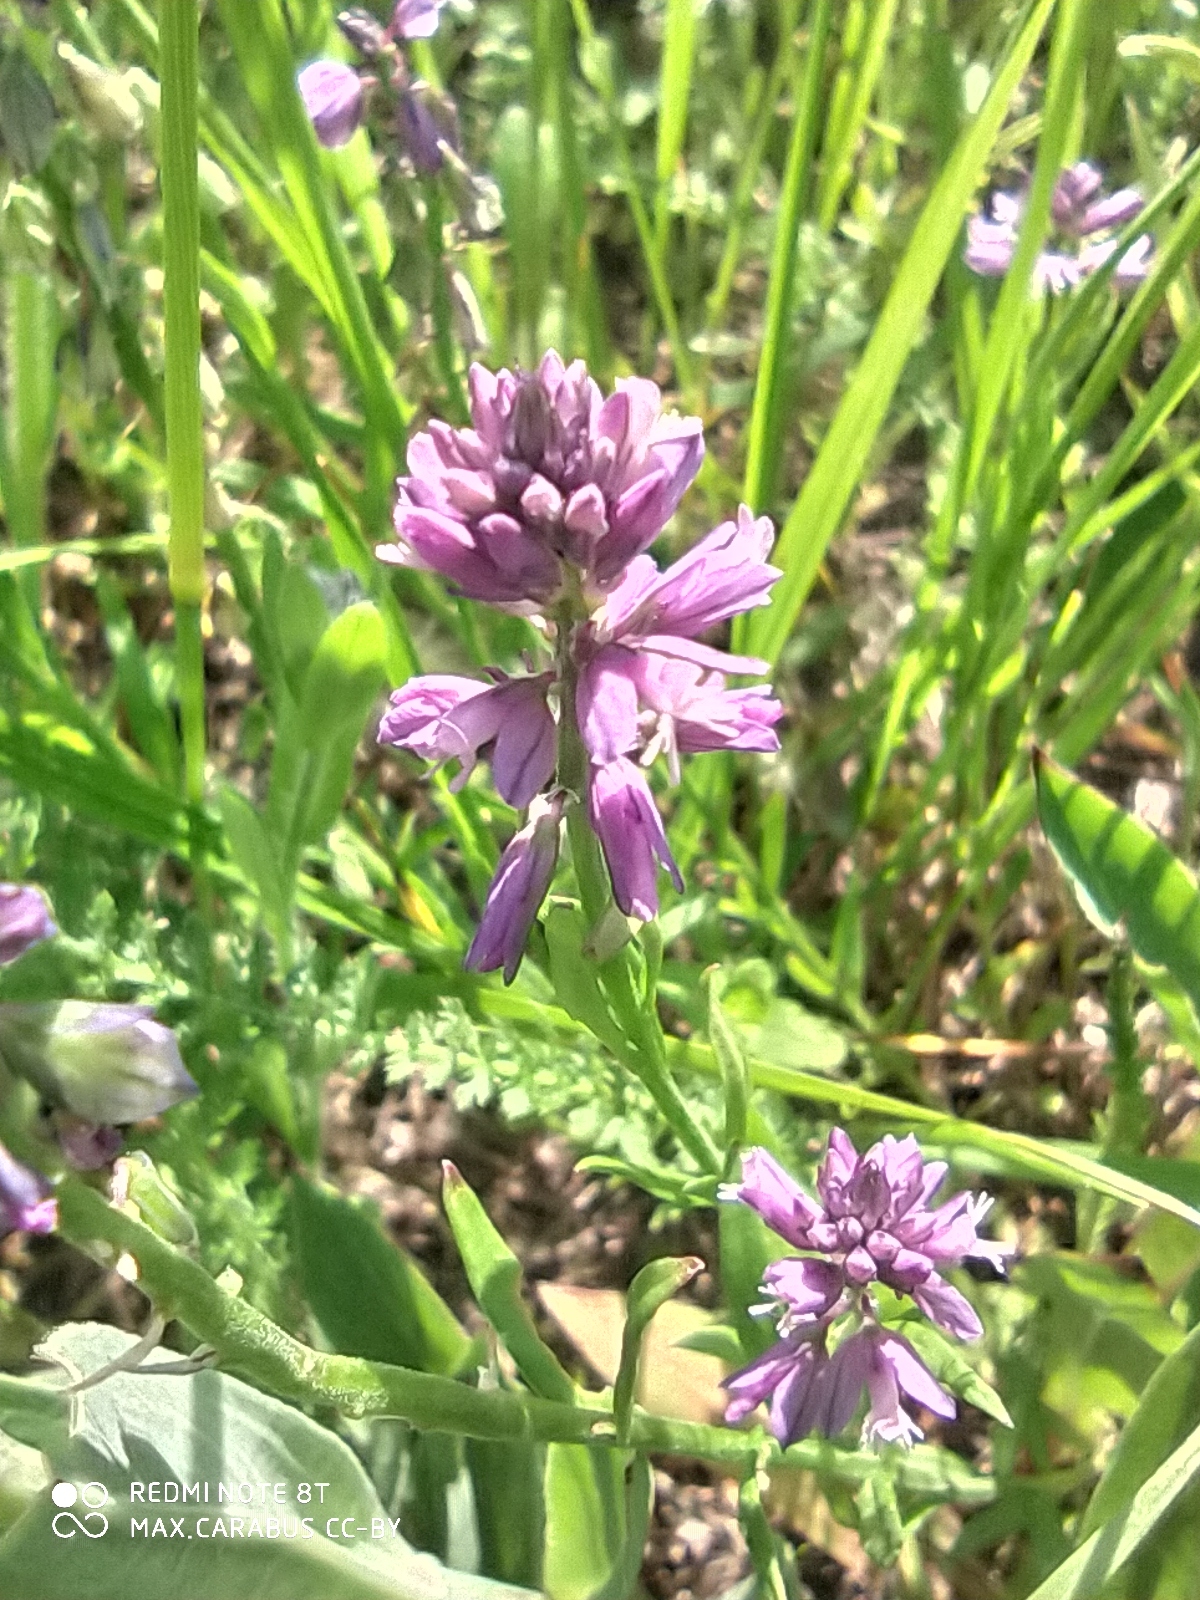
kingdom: Plantae
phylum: Tracheophyta
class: Magnoliopsida
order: Fabales
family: Polygalaceae
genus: Polygala
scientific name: Polygala comosa
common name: Tufted milkwort
